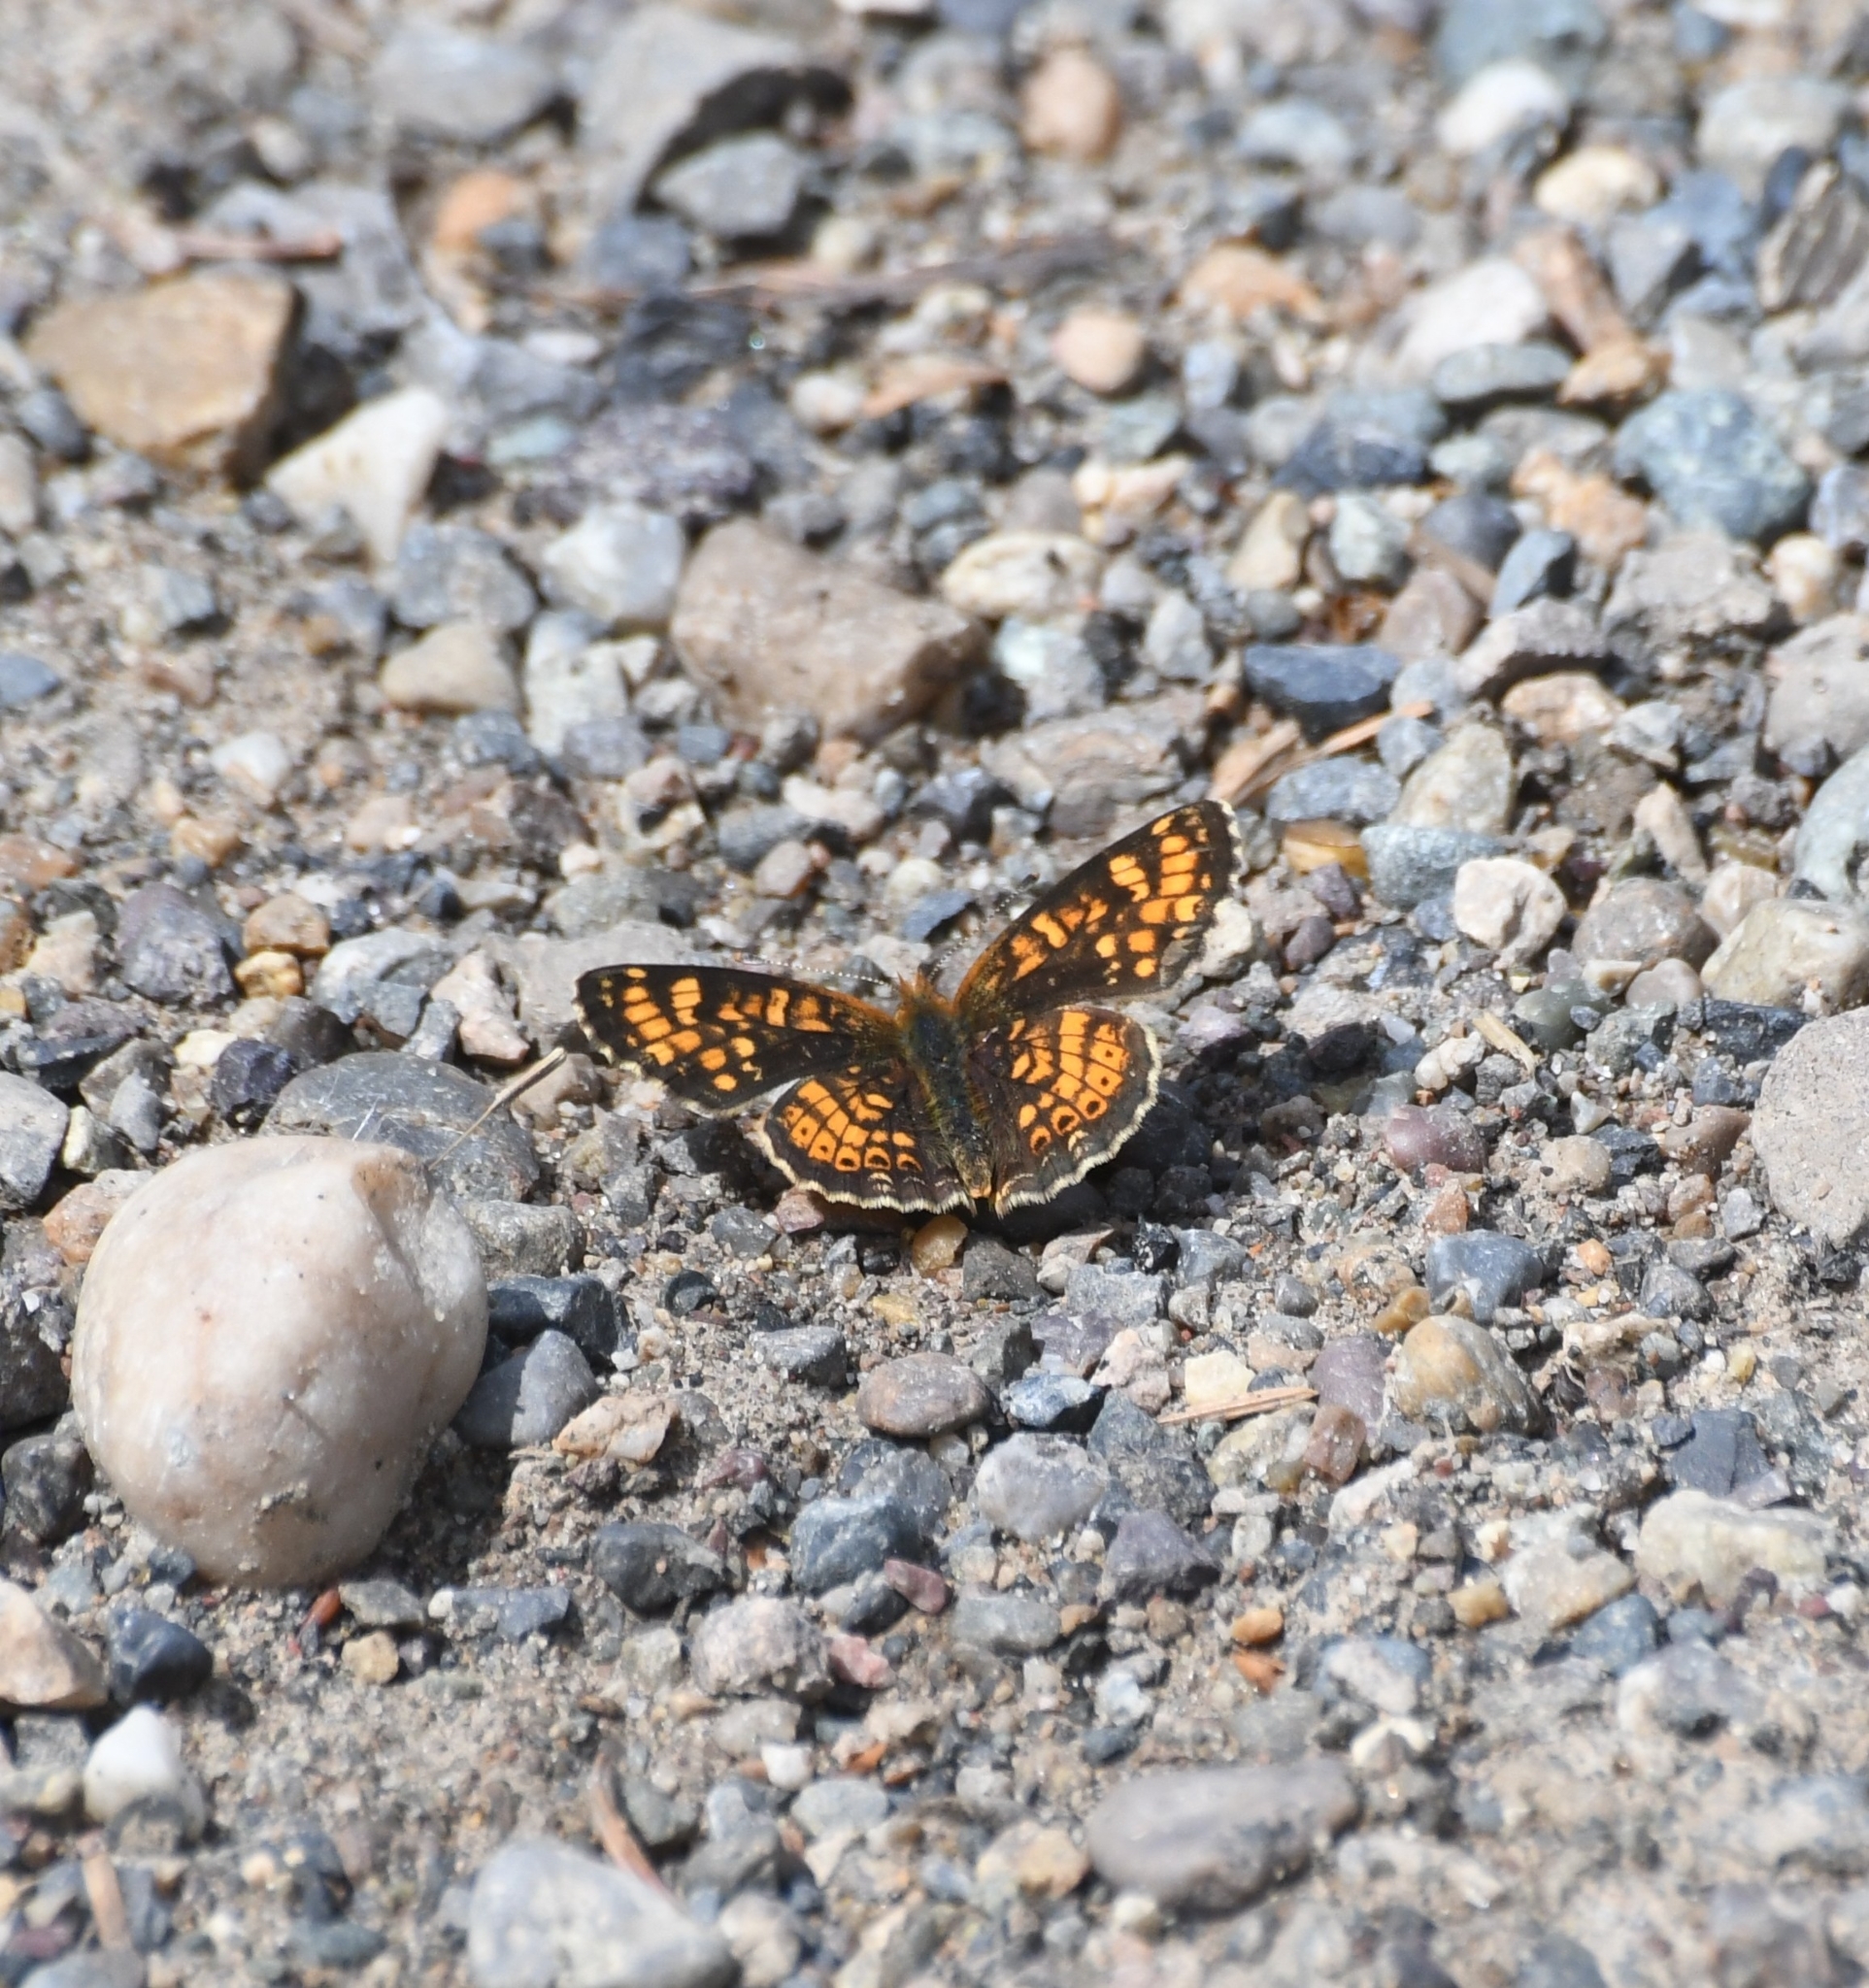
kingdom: Animalia
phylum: Arthropoda
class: Insecta
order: Lepidoptera
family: Nymphalidae
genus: Phyciodes
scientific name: Phyciodes tharos
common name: Pearl crescent
